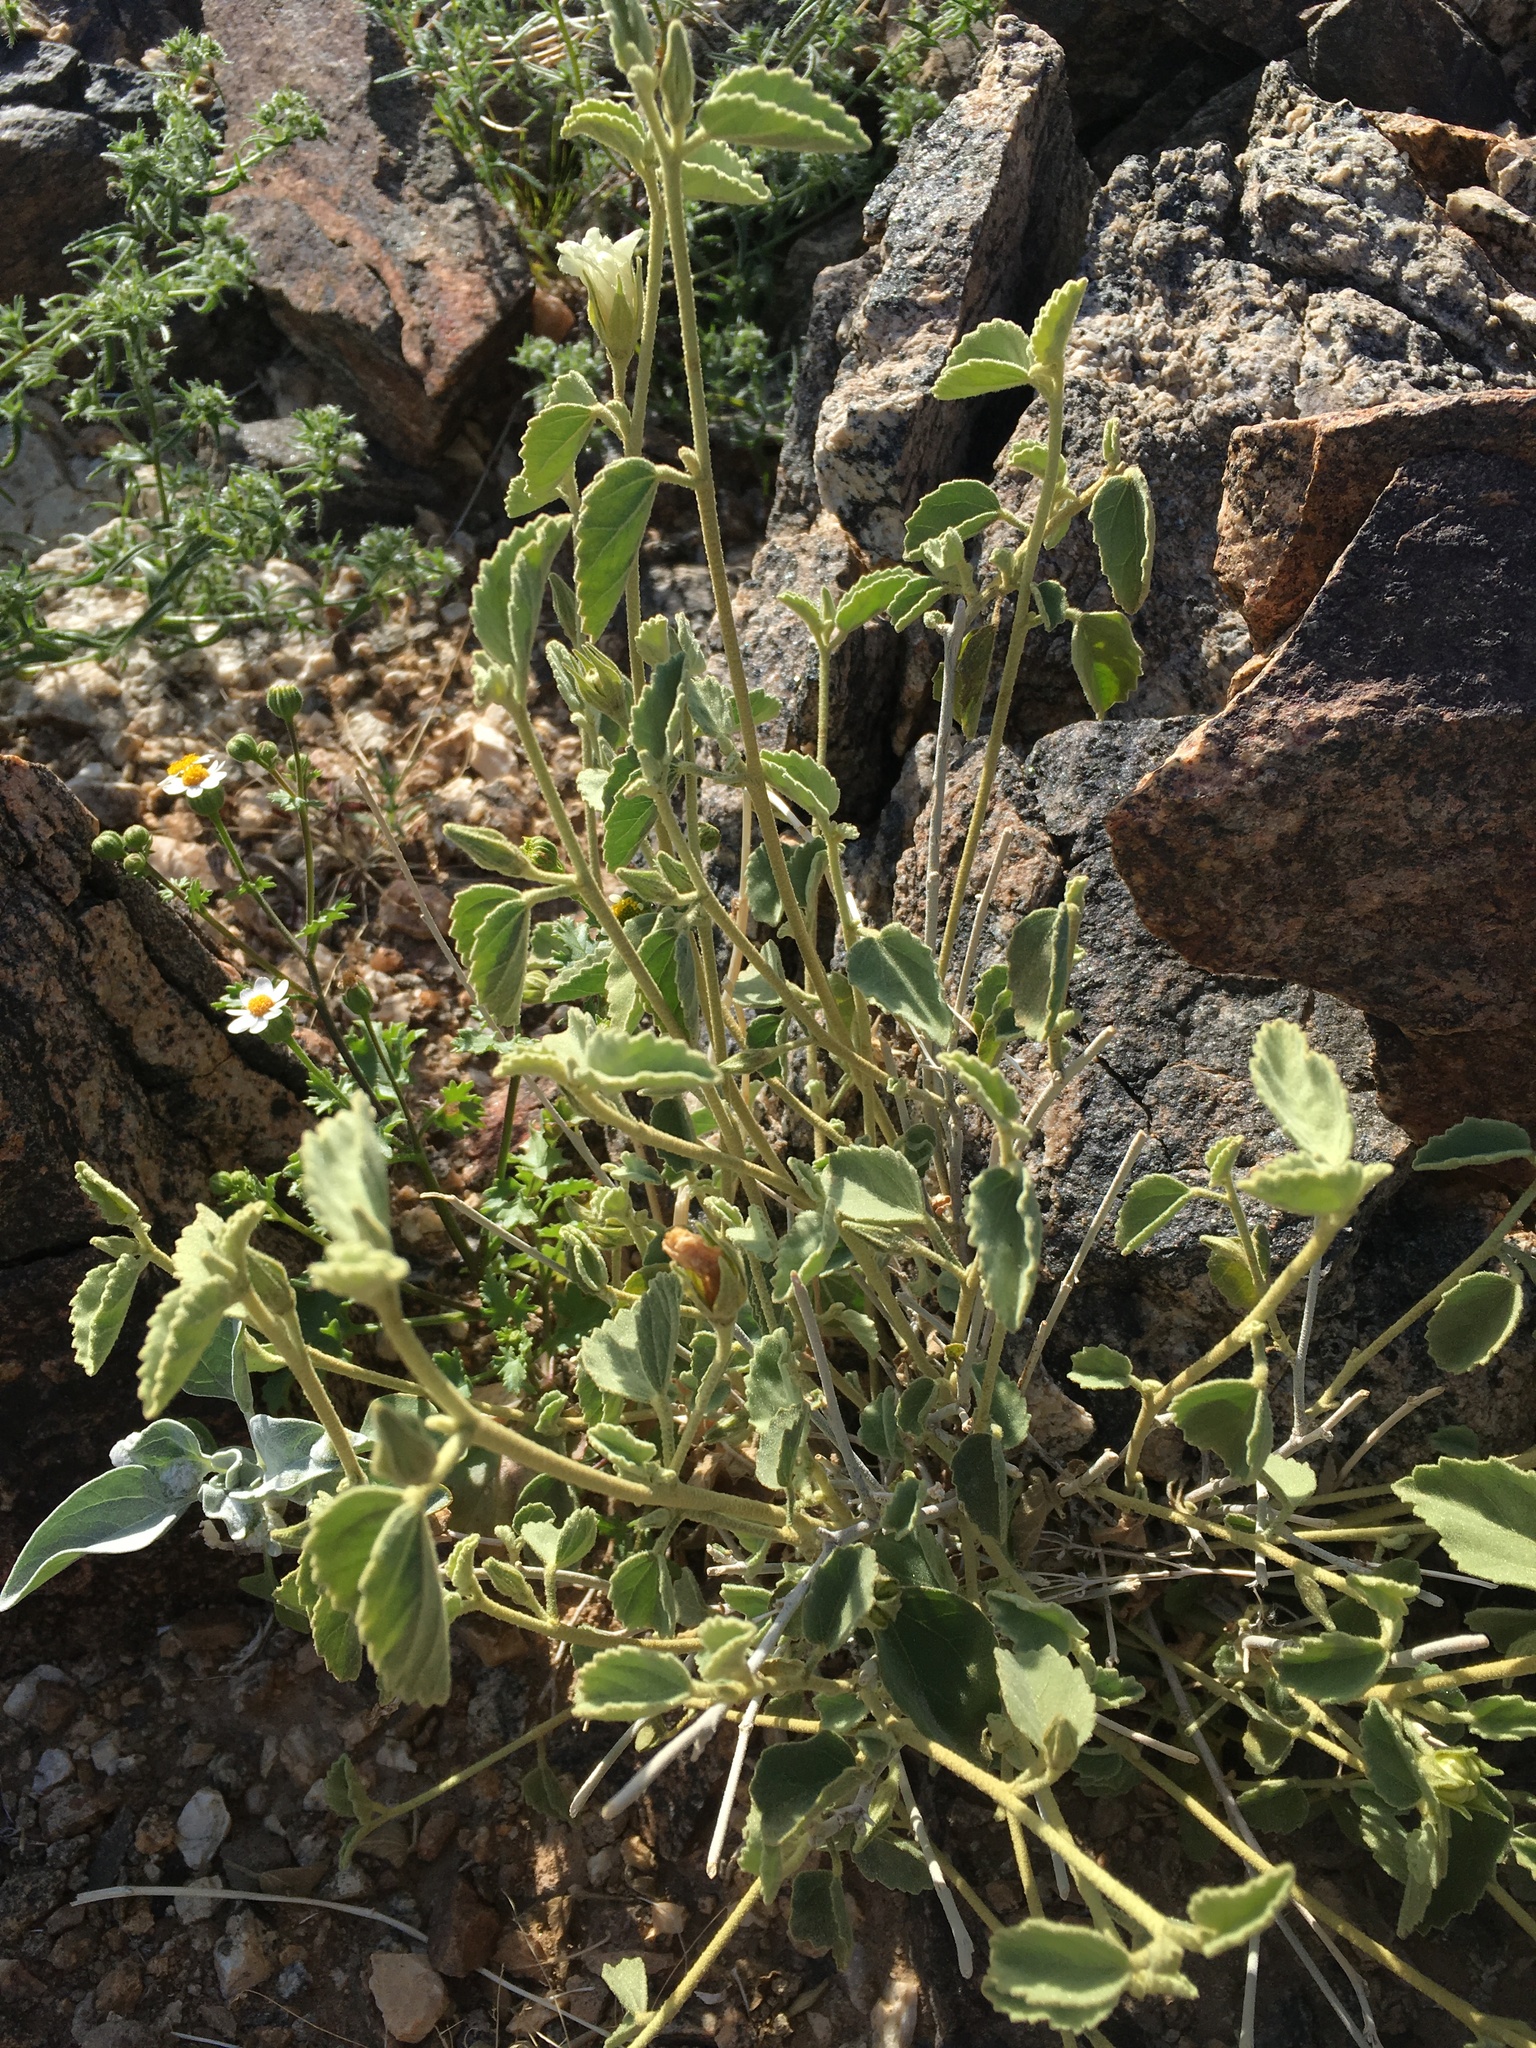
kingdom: Plantae
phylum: Tracheophyta
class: Magnoliopsida
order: Malvales
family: Malvaceae
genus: Hibiscus
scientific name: Hibiscus denudatus
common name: Paleface
